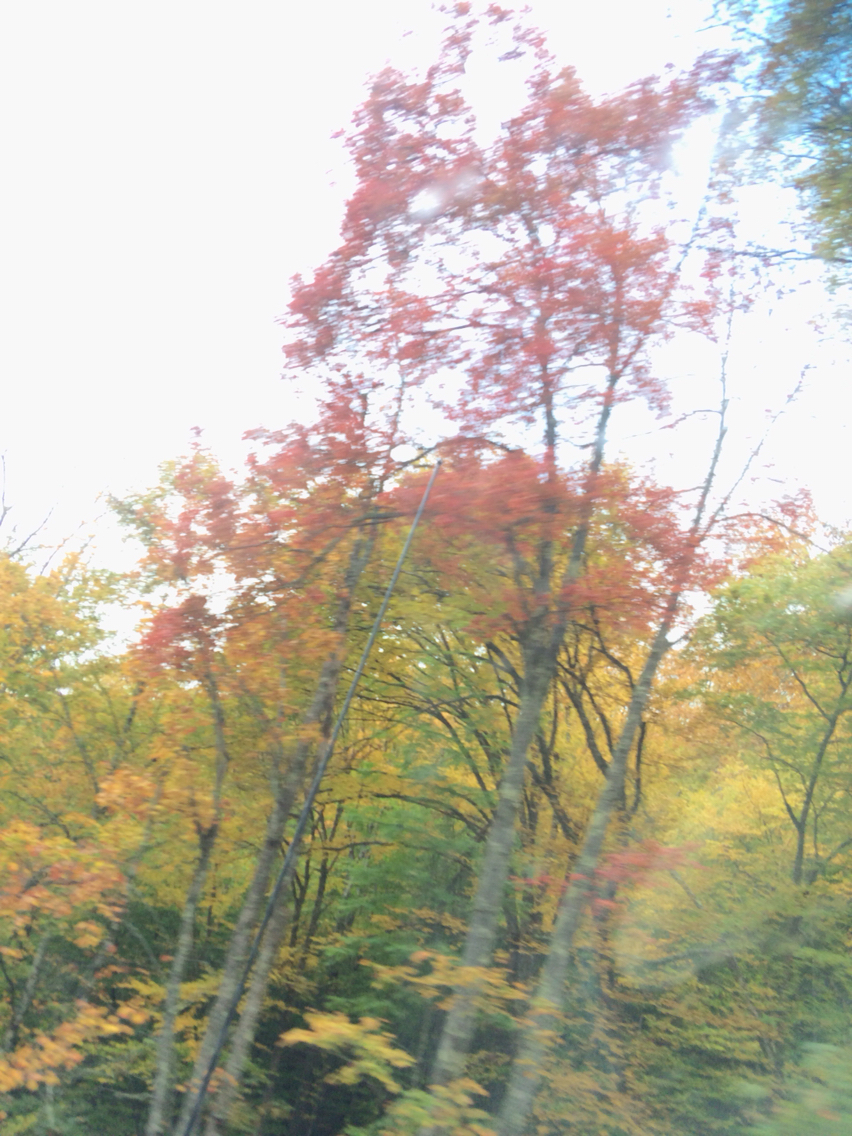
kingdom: Plantae
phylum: Tracheophyta
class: Magnoliopsida
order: Sapindales
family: Sapindaceae
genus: Acer
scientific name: Acer rubrum
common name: Red maple
